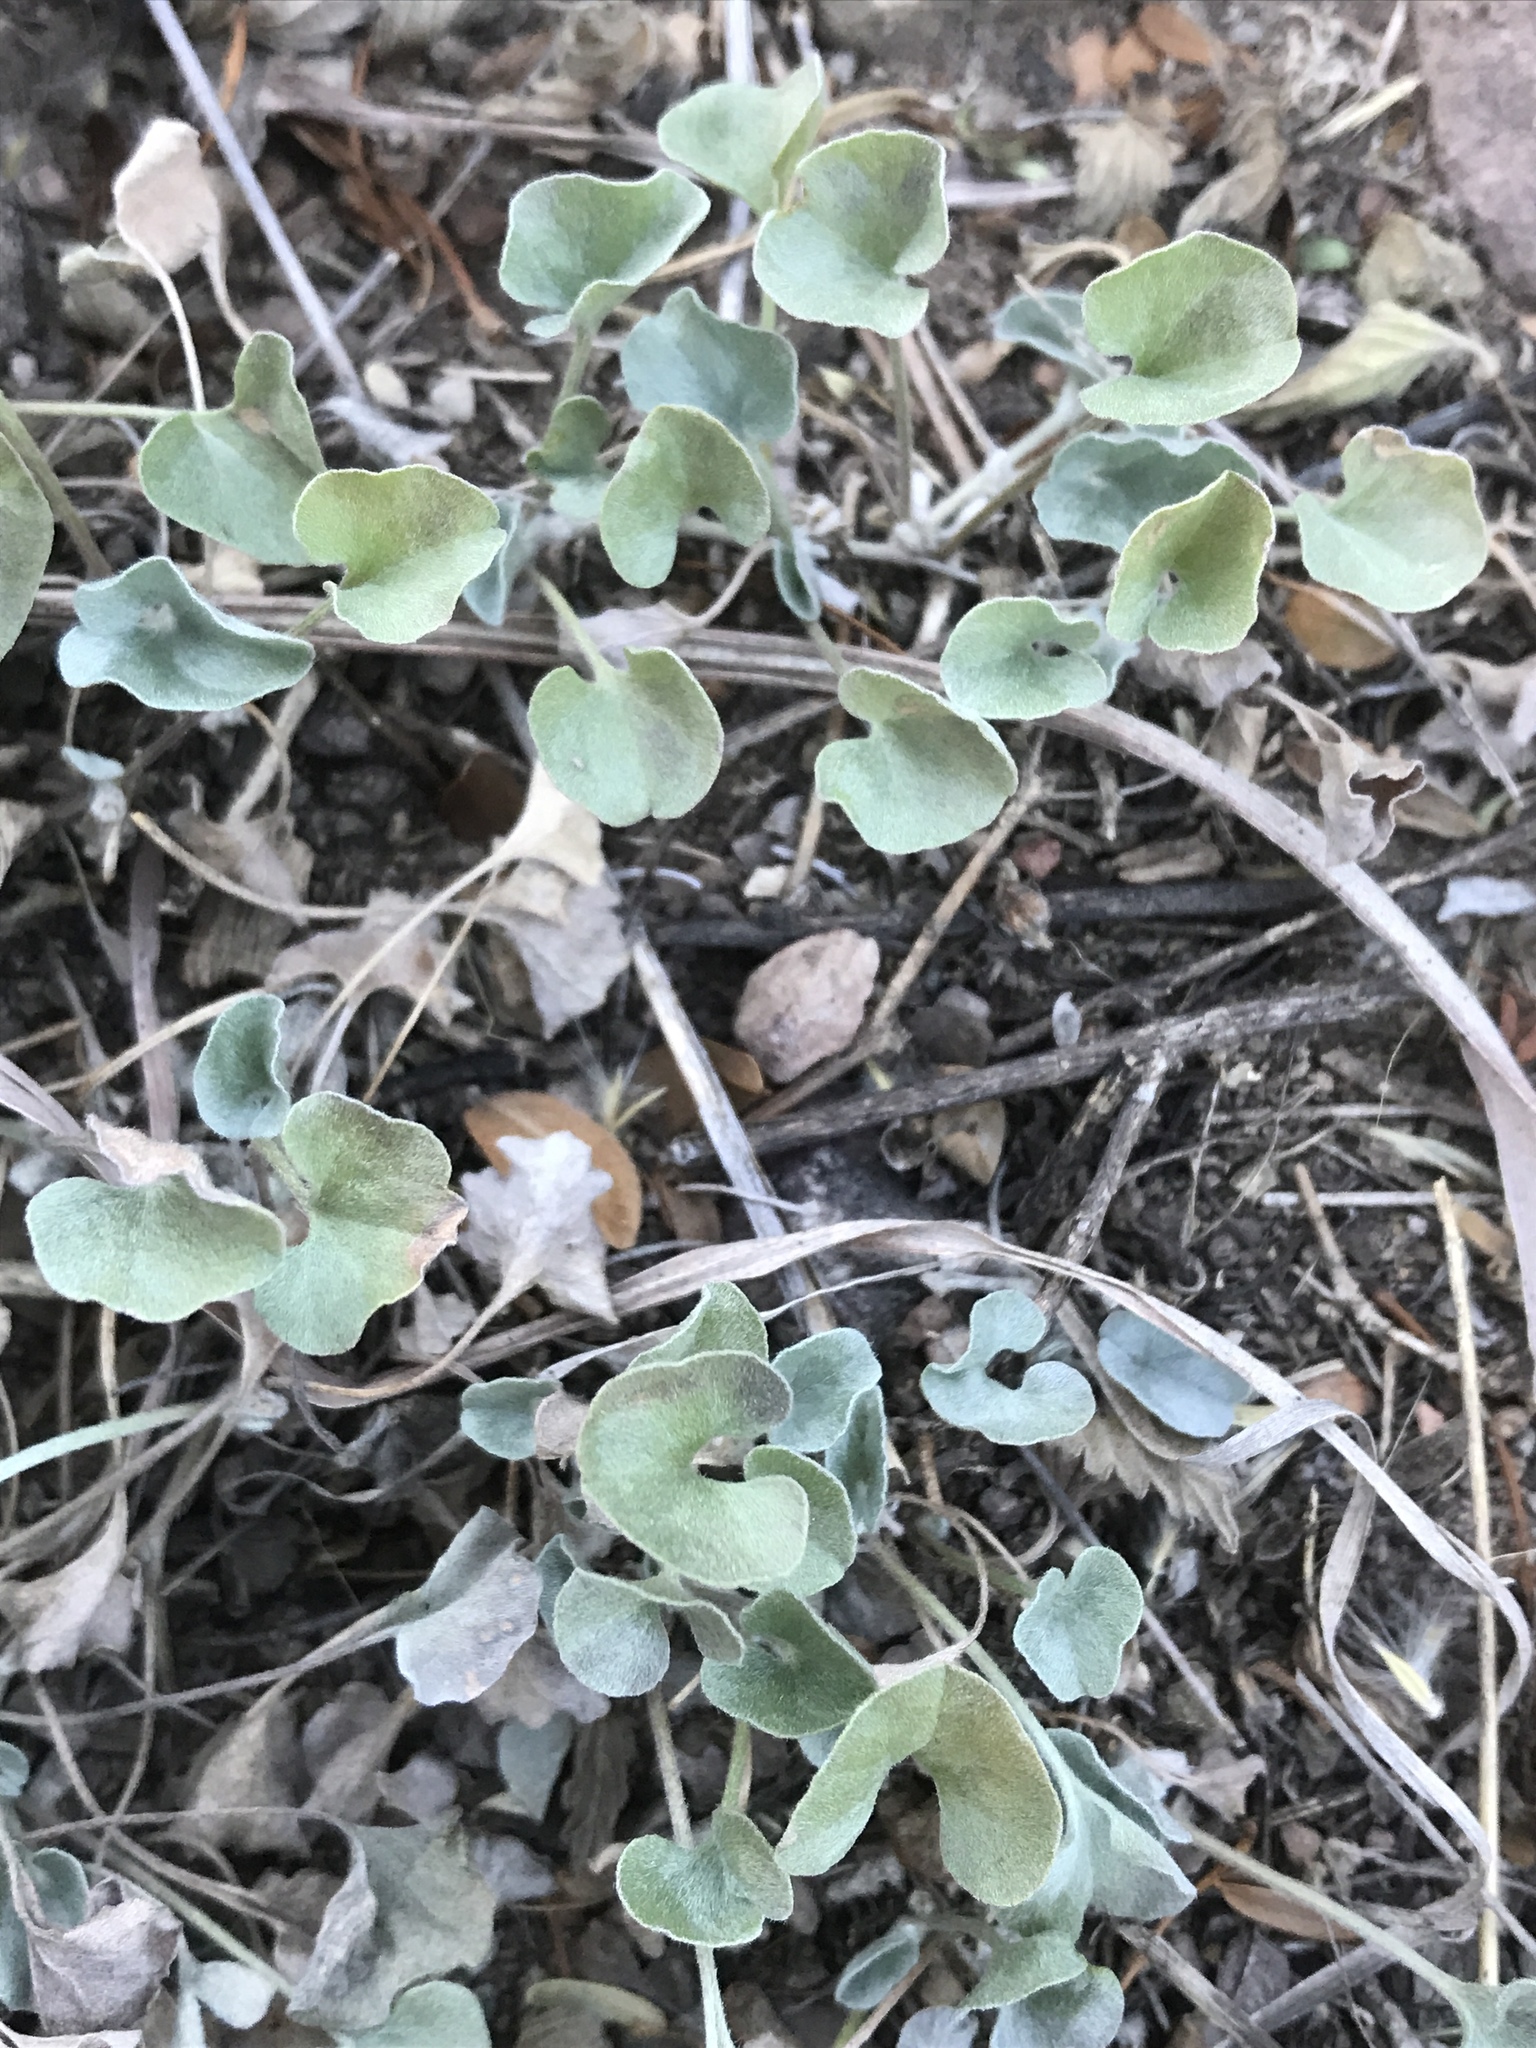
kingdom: Plantae
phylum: Tracheophyta
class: Magnoliopsida
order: Solanales
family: Convolvulaceae
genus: Dichondra
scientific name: Dichondra argentea
